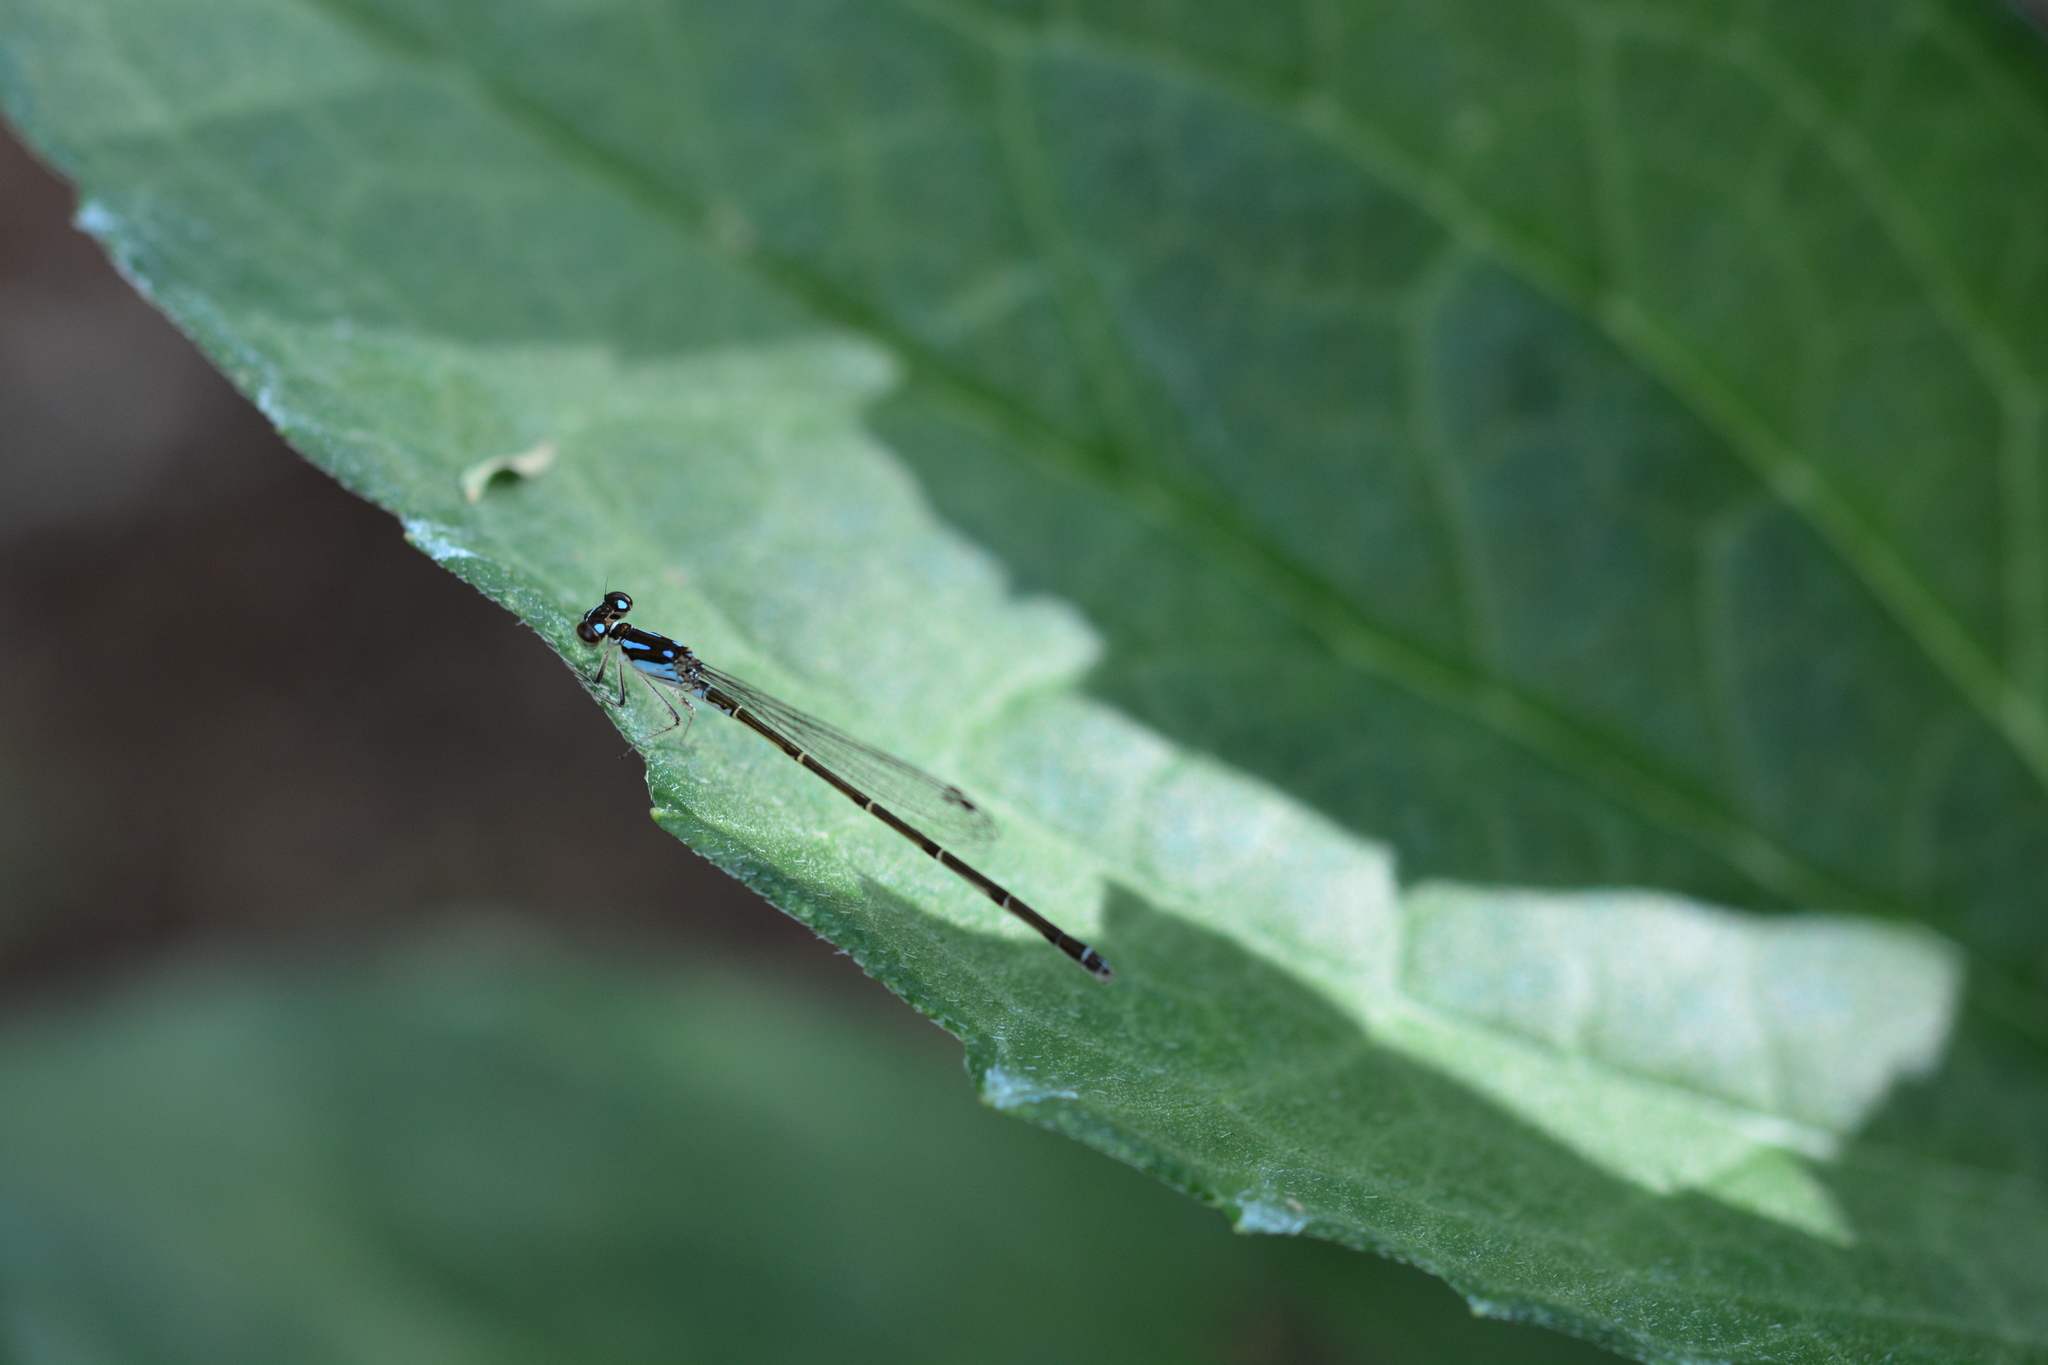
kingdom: Animalia
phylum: Arthropoda
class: Insecta
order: Odonata
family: Coenagrionidae
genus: Ischnura
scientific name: Ischnura posita
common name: Fragile forktail
